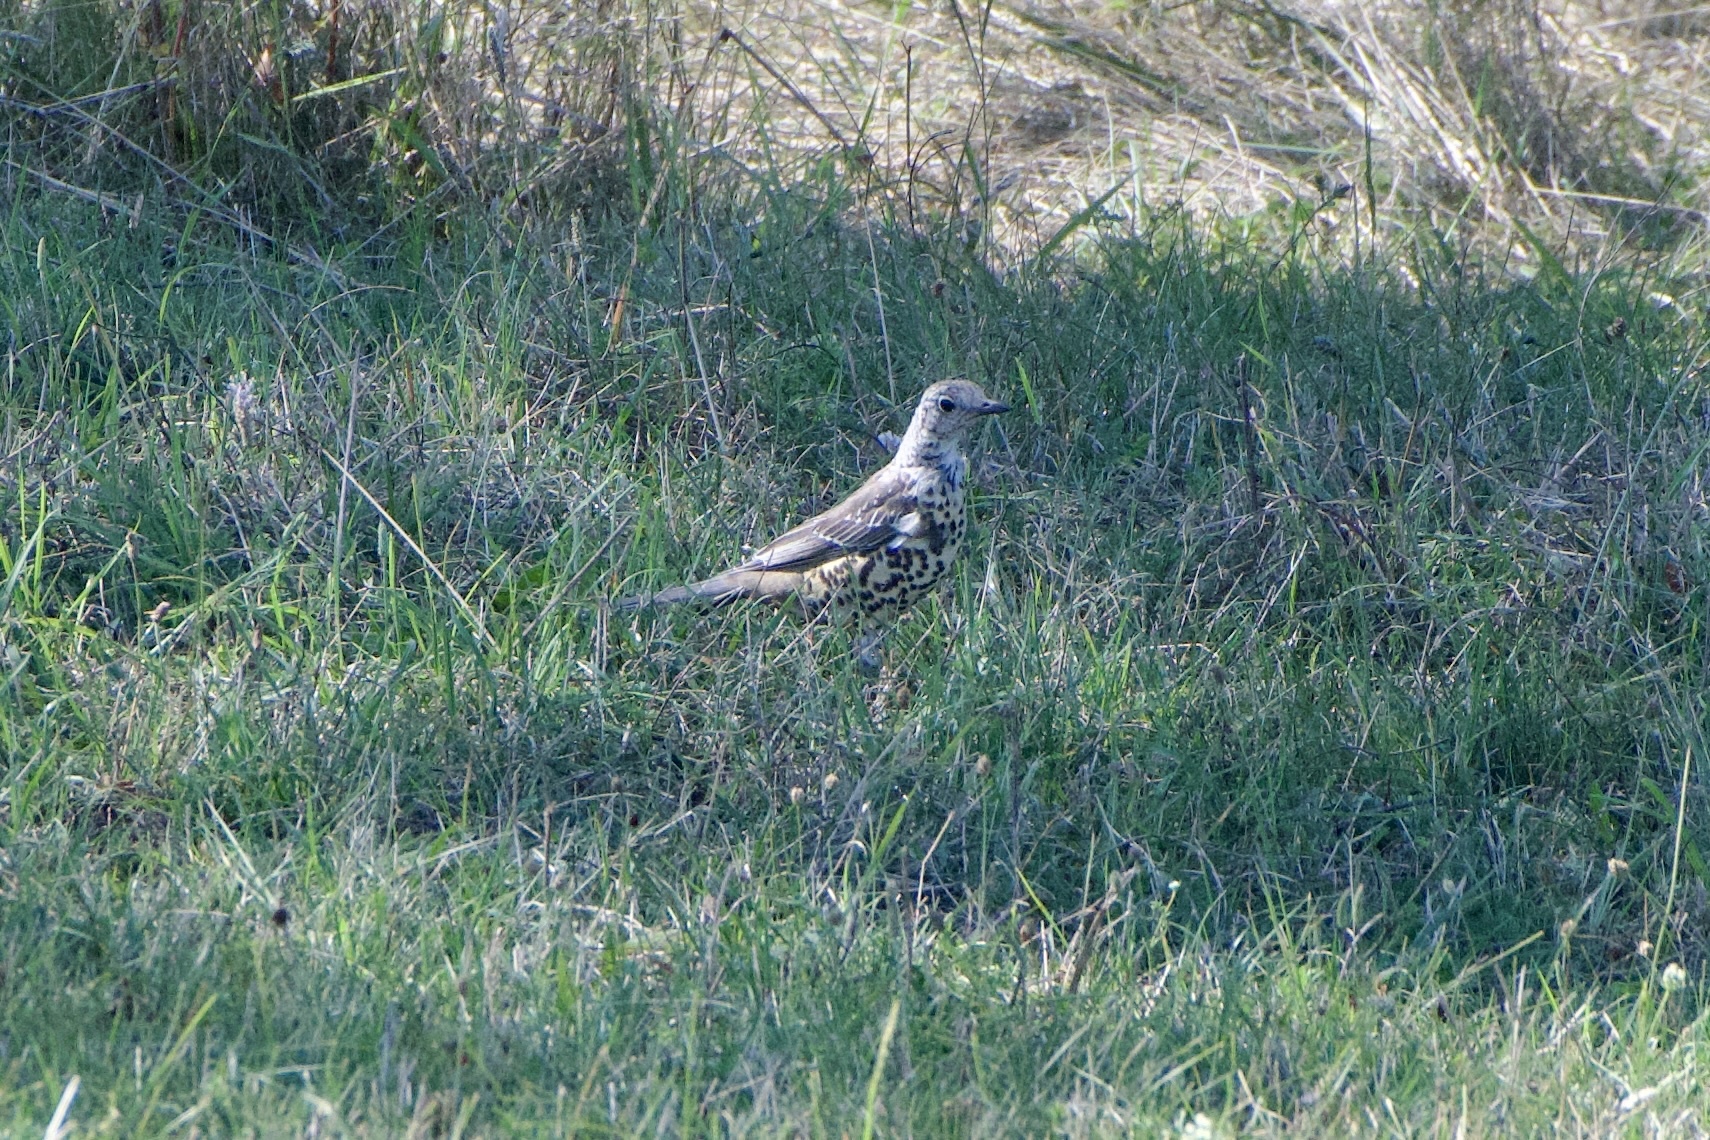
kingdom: Animalia
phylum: Chordata
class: Aves
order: Passeriformes
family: Turdidae
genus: Turdus
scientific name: Turdus viscivorus
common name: Mistle thrush
